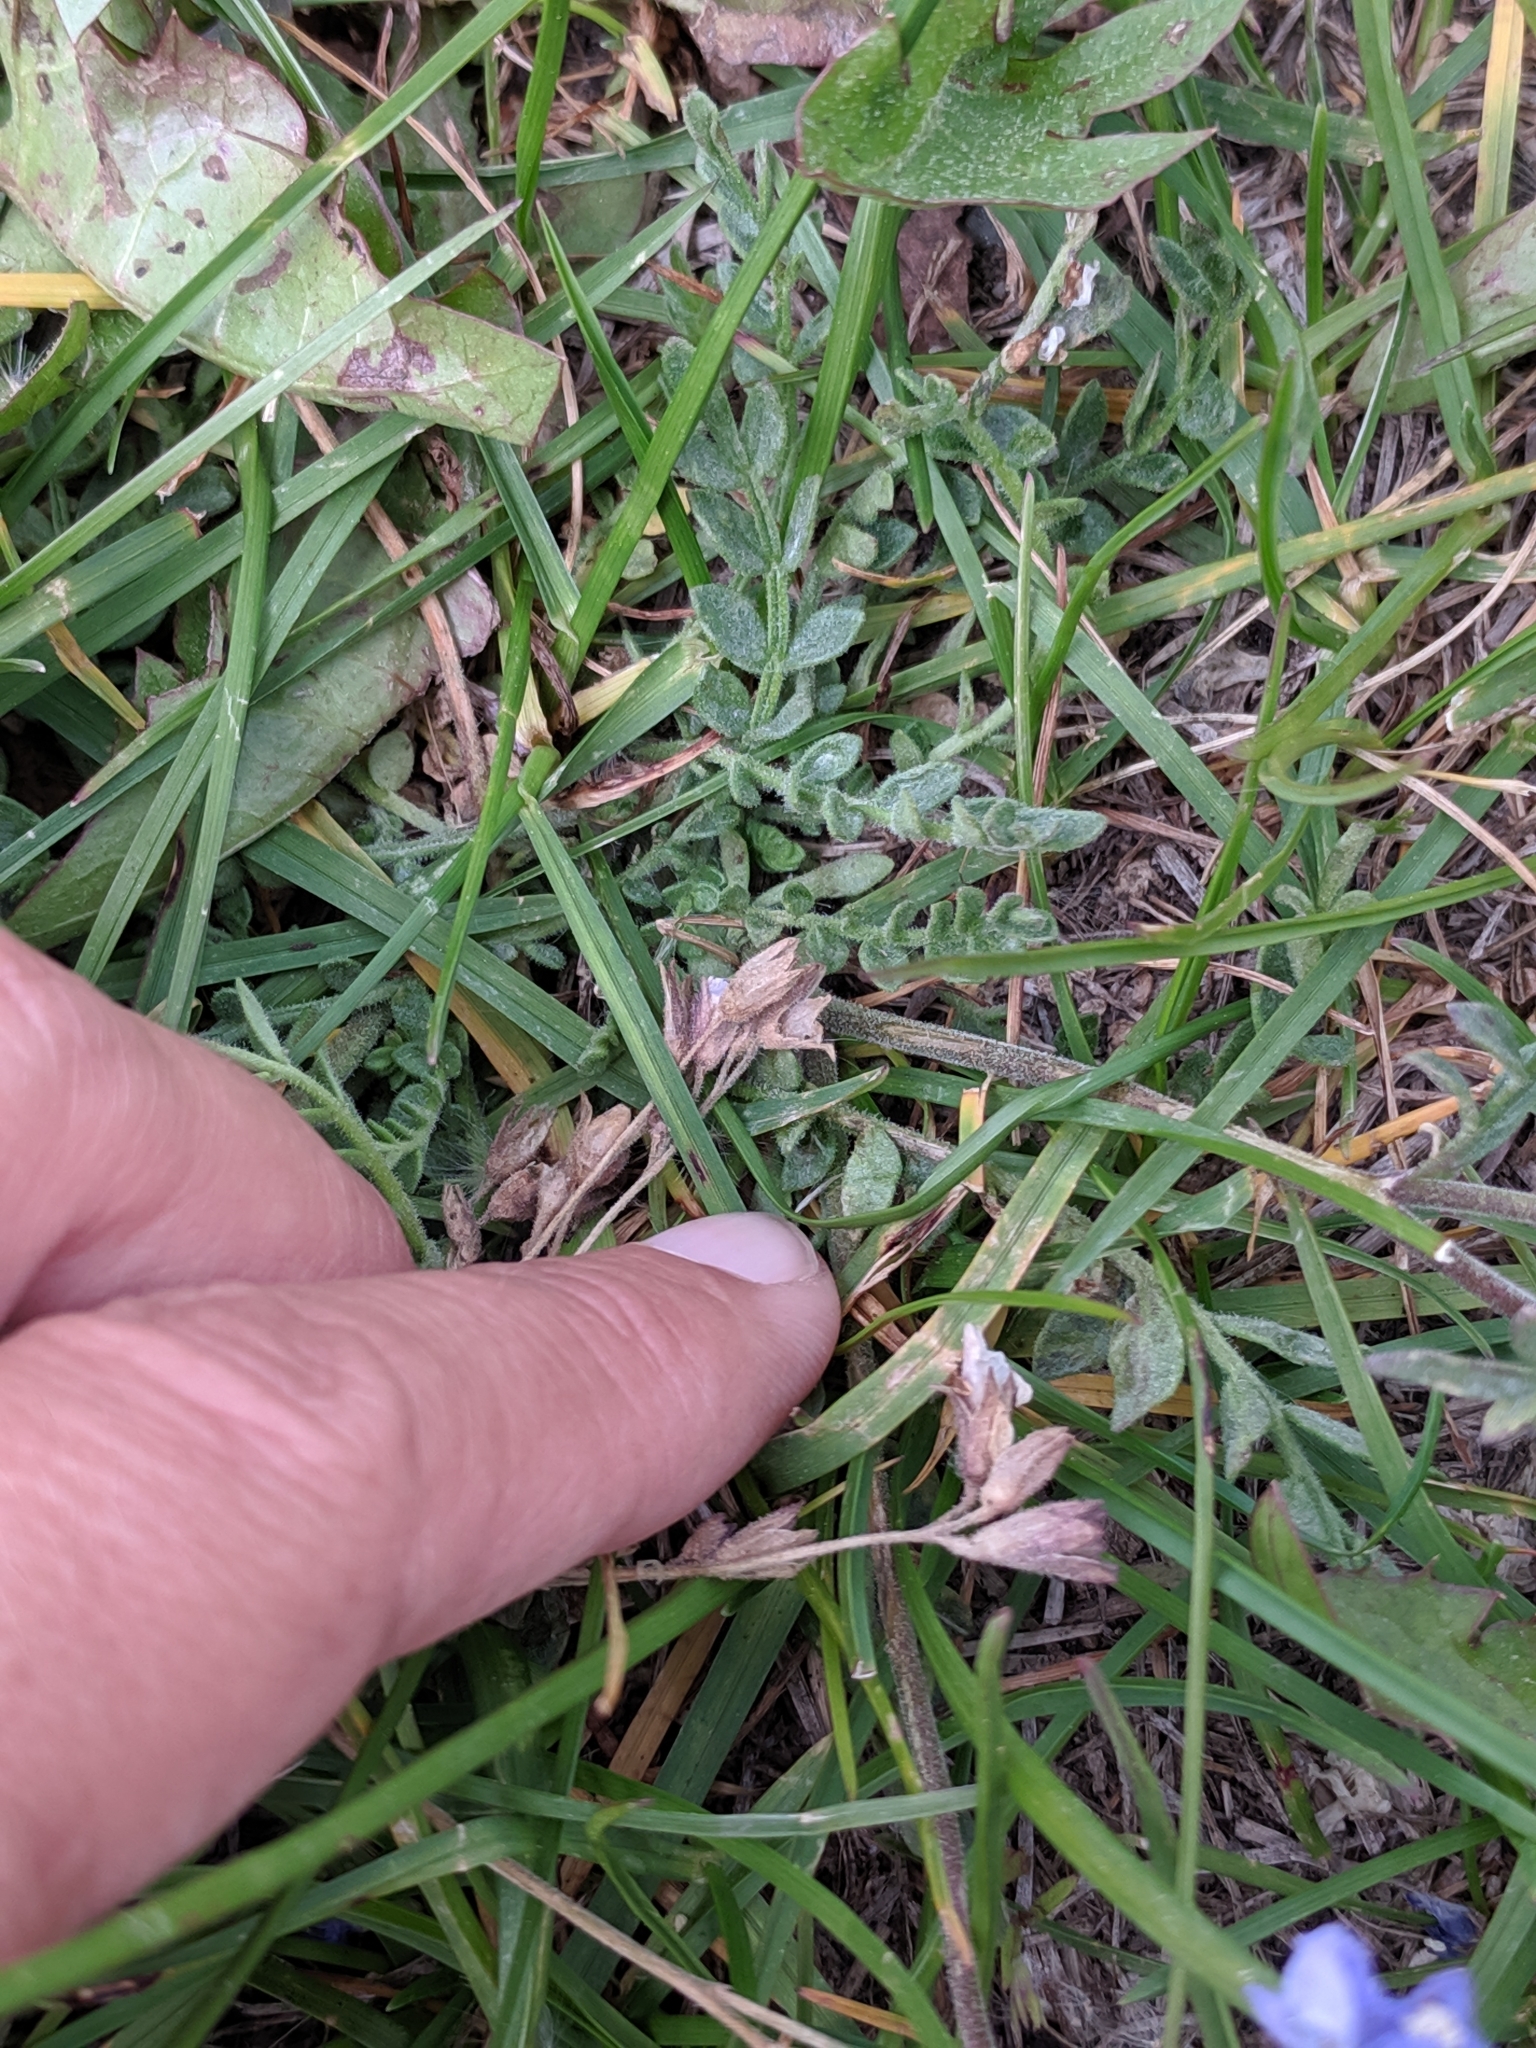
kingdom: Plantae
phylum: Tracheophyta
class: Magnoliopsida
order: Ericales
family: Polemoniaceae
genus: Polemonium
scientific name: Polemonium pulcherrimum
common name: Short jacob's-ladder
